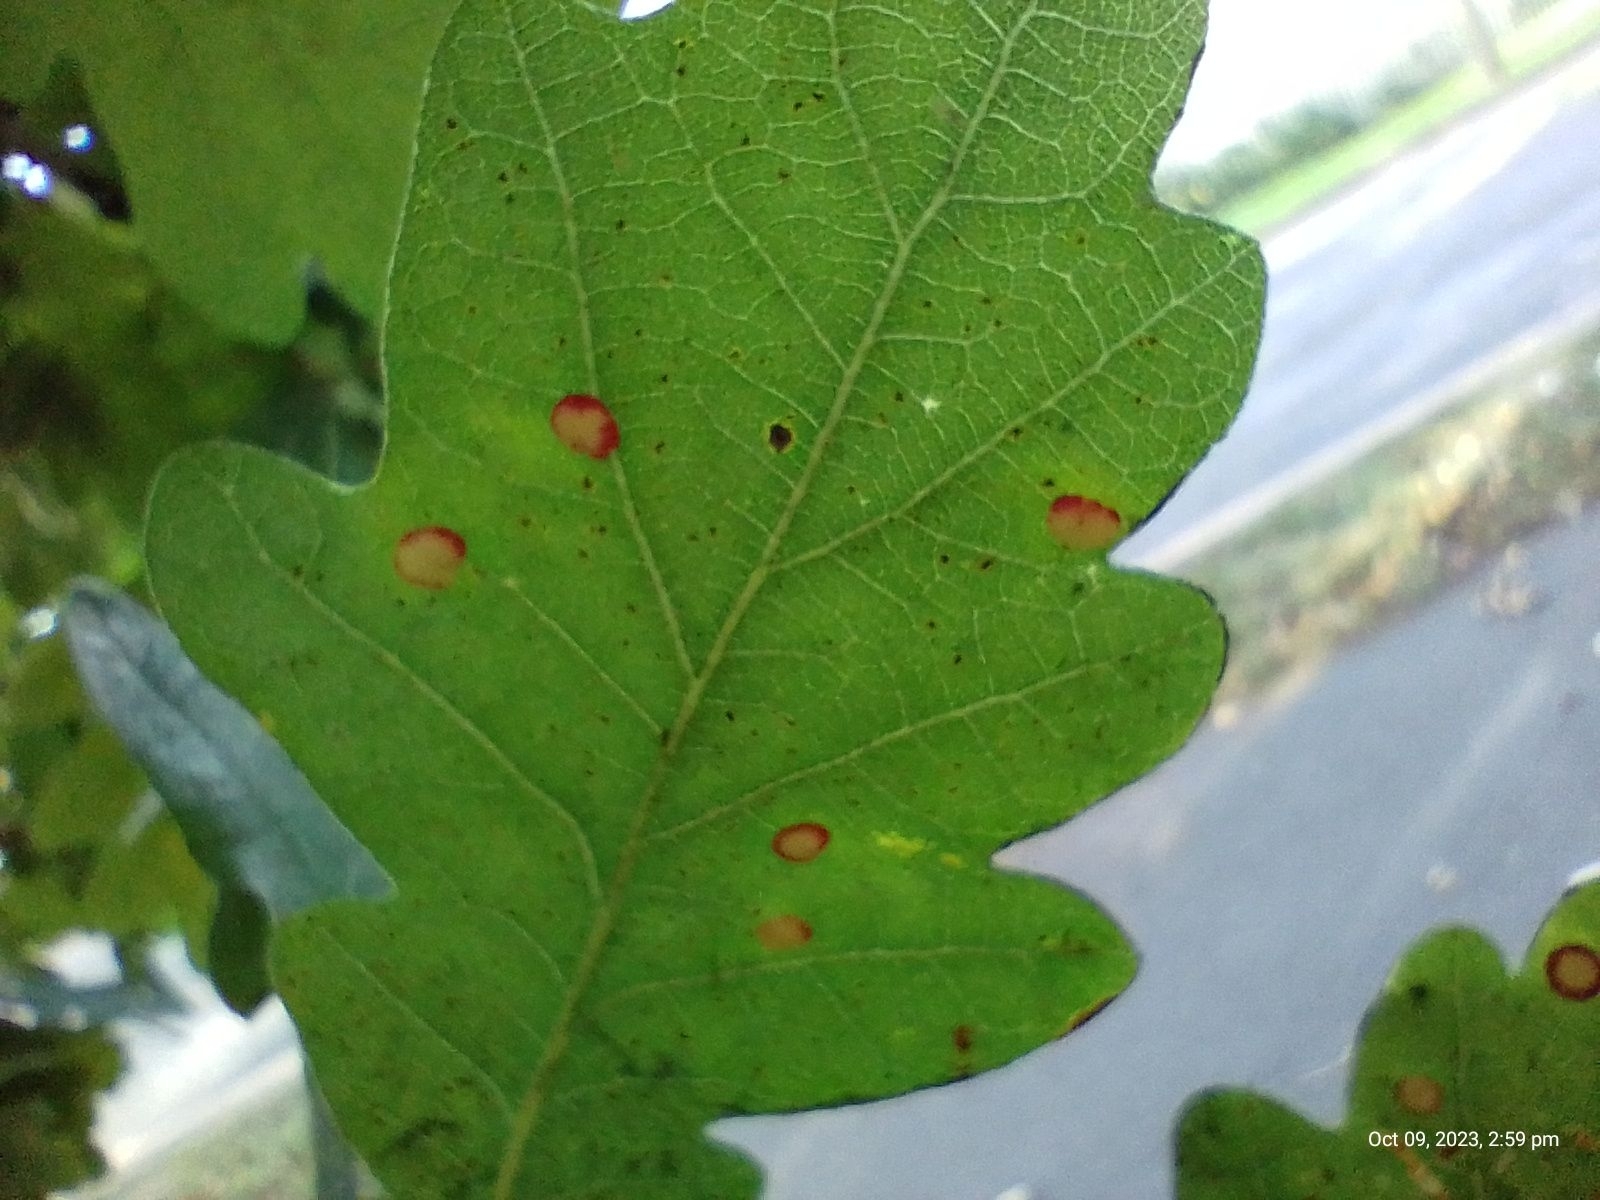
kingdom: Animalia
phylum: Arthropoda
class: Insecta
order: Hymenoptera
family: Cynipidae
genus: Neuroterus
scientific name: Neuroterus albipes
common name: Smooth spangle gall
